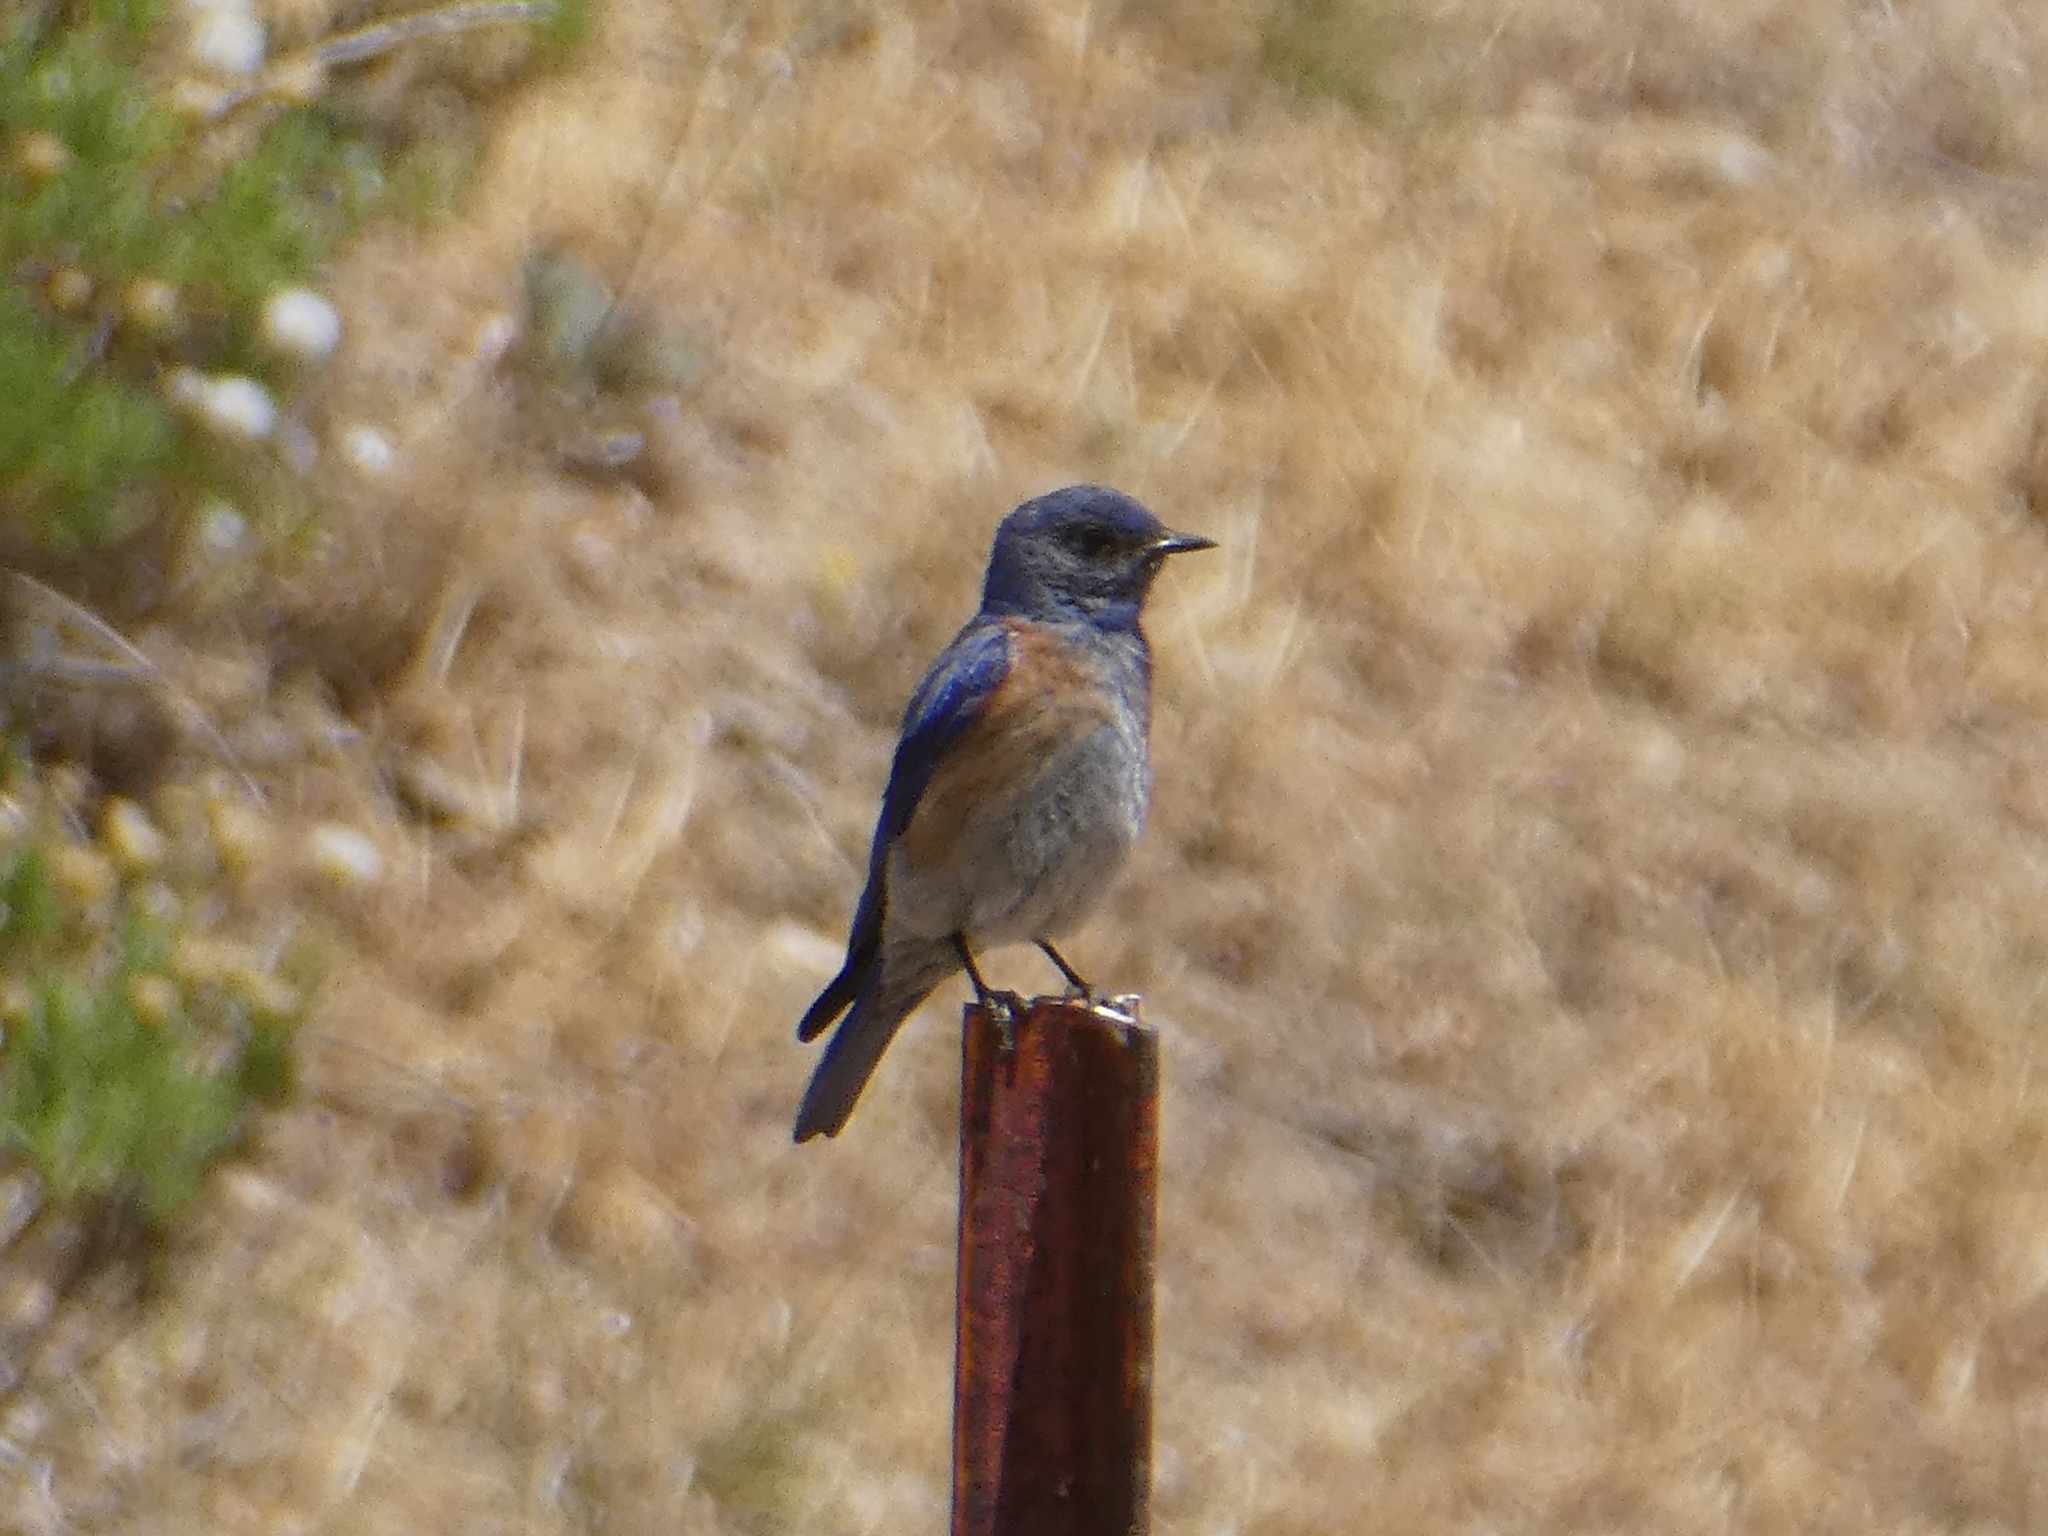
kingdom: Animalia
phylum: Chordata
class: Aves
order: Passeriformes
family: Turdidae
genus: Sialia
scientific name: Sialia mexicana
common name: Western bluebird
